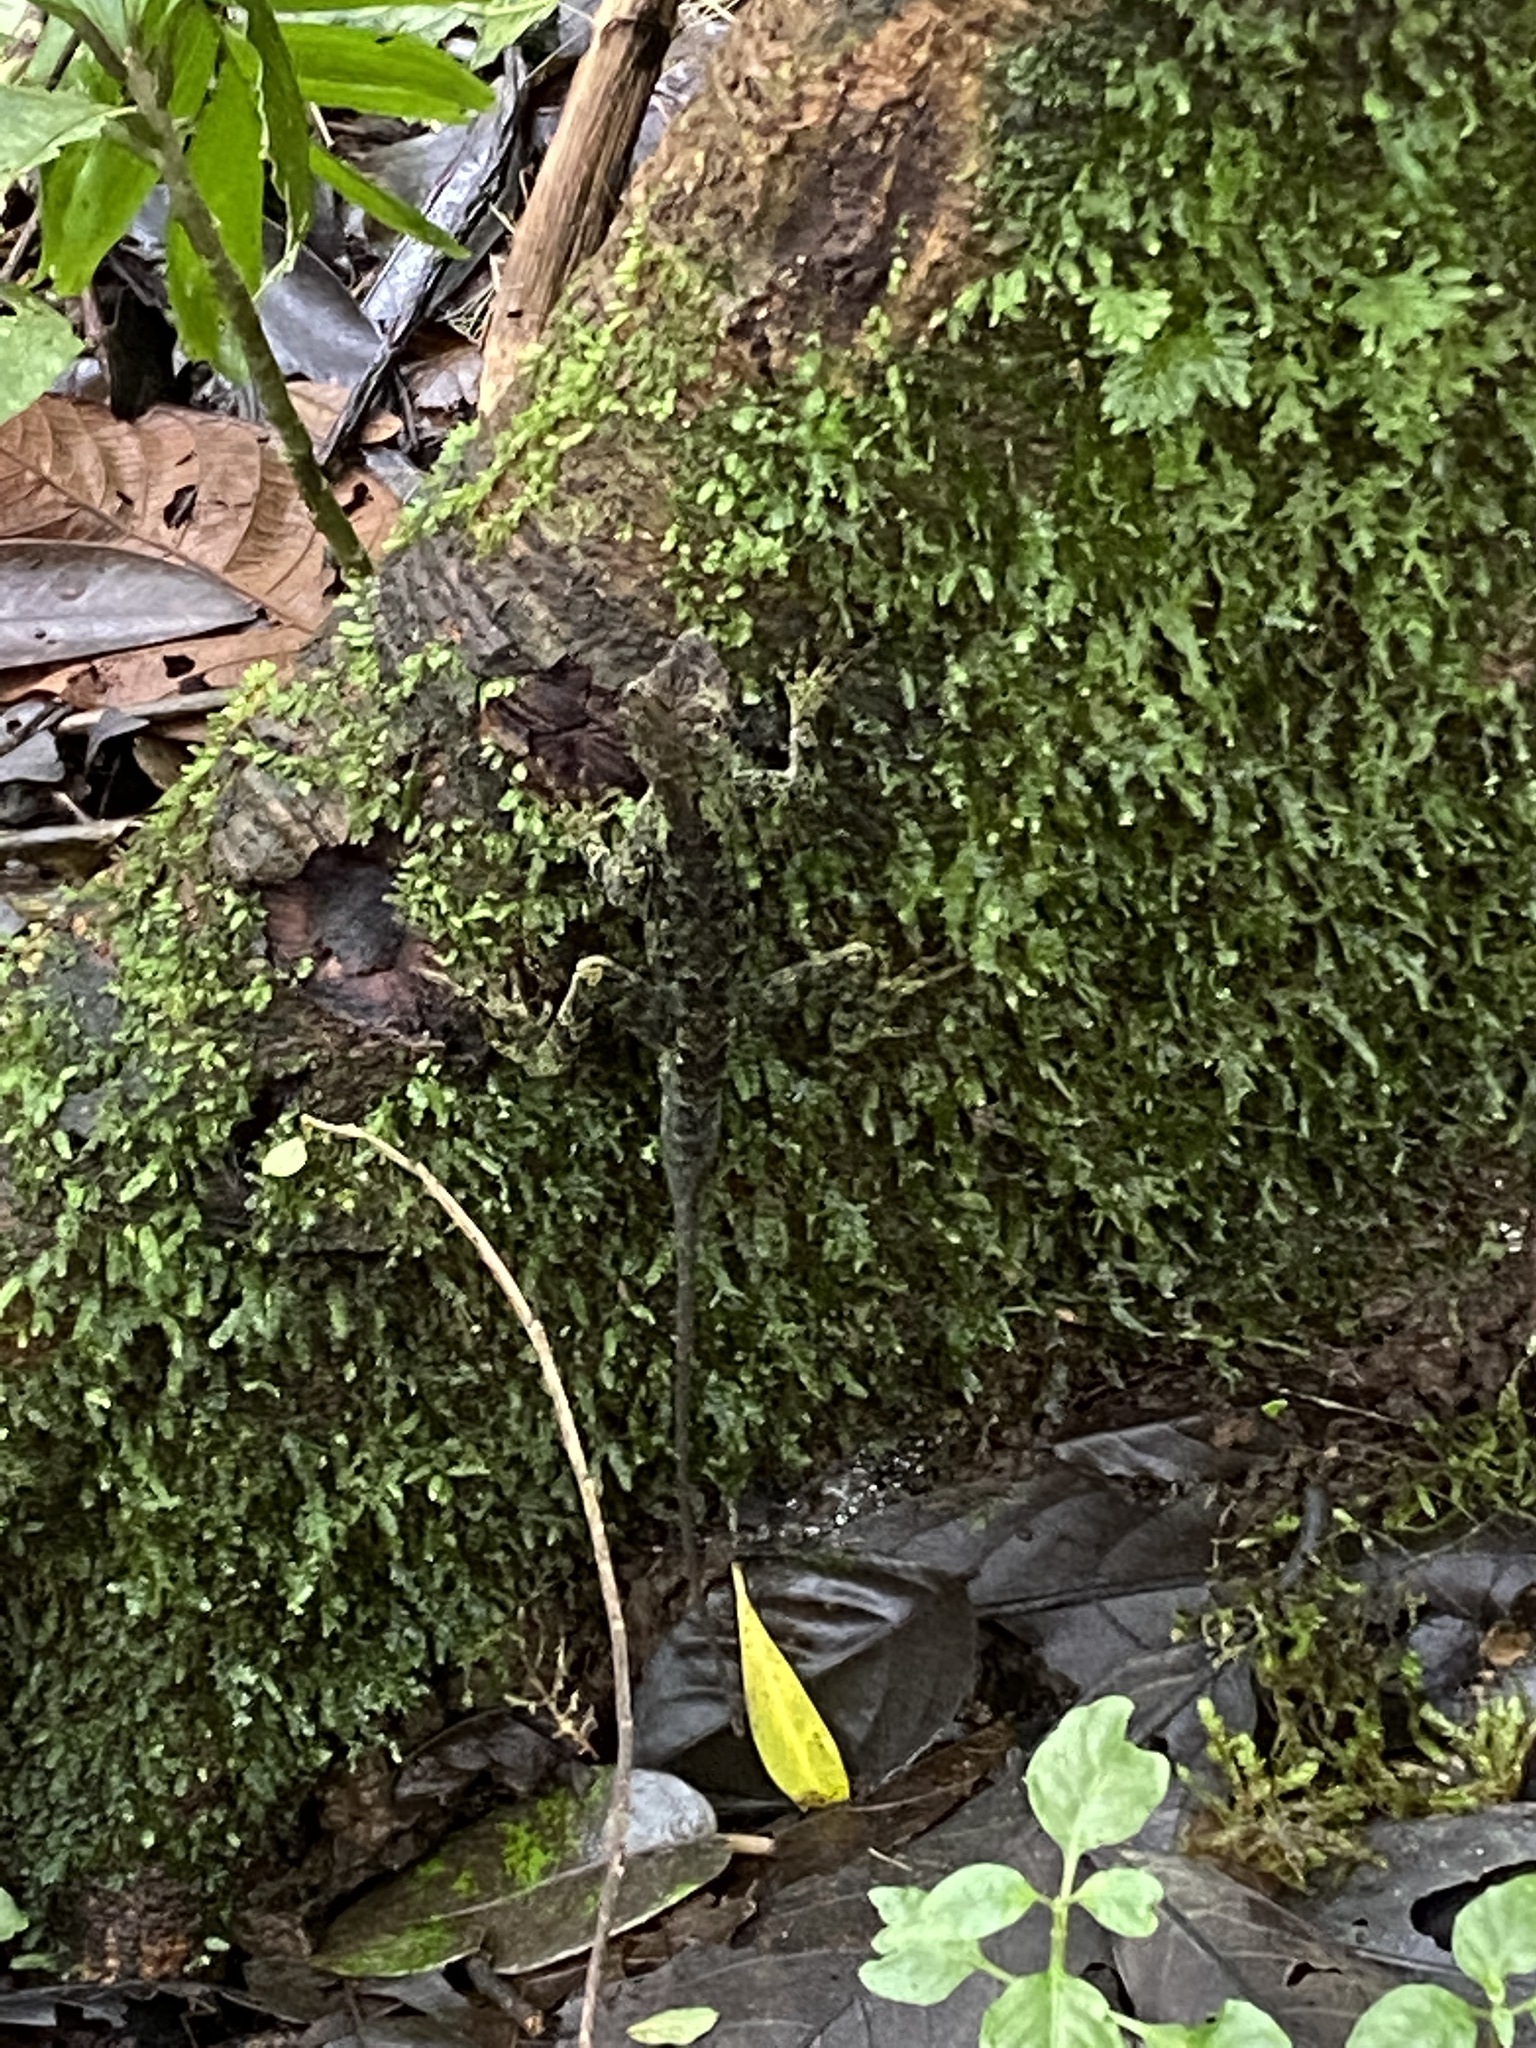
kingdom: Animalia
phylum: Chordata
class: Squamata
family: Dactyloidae
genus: Anolis
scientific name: Anolis capito
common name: Bighead anole
